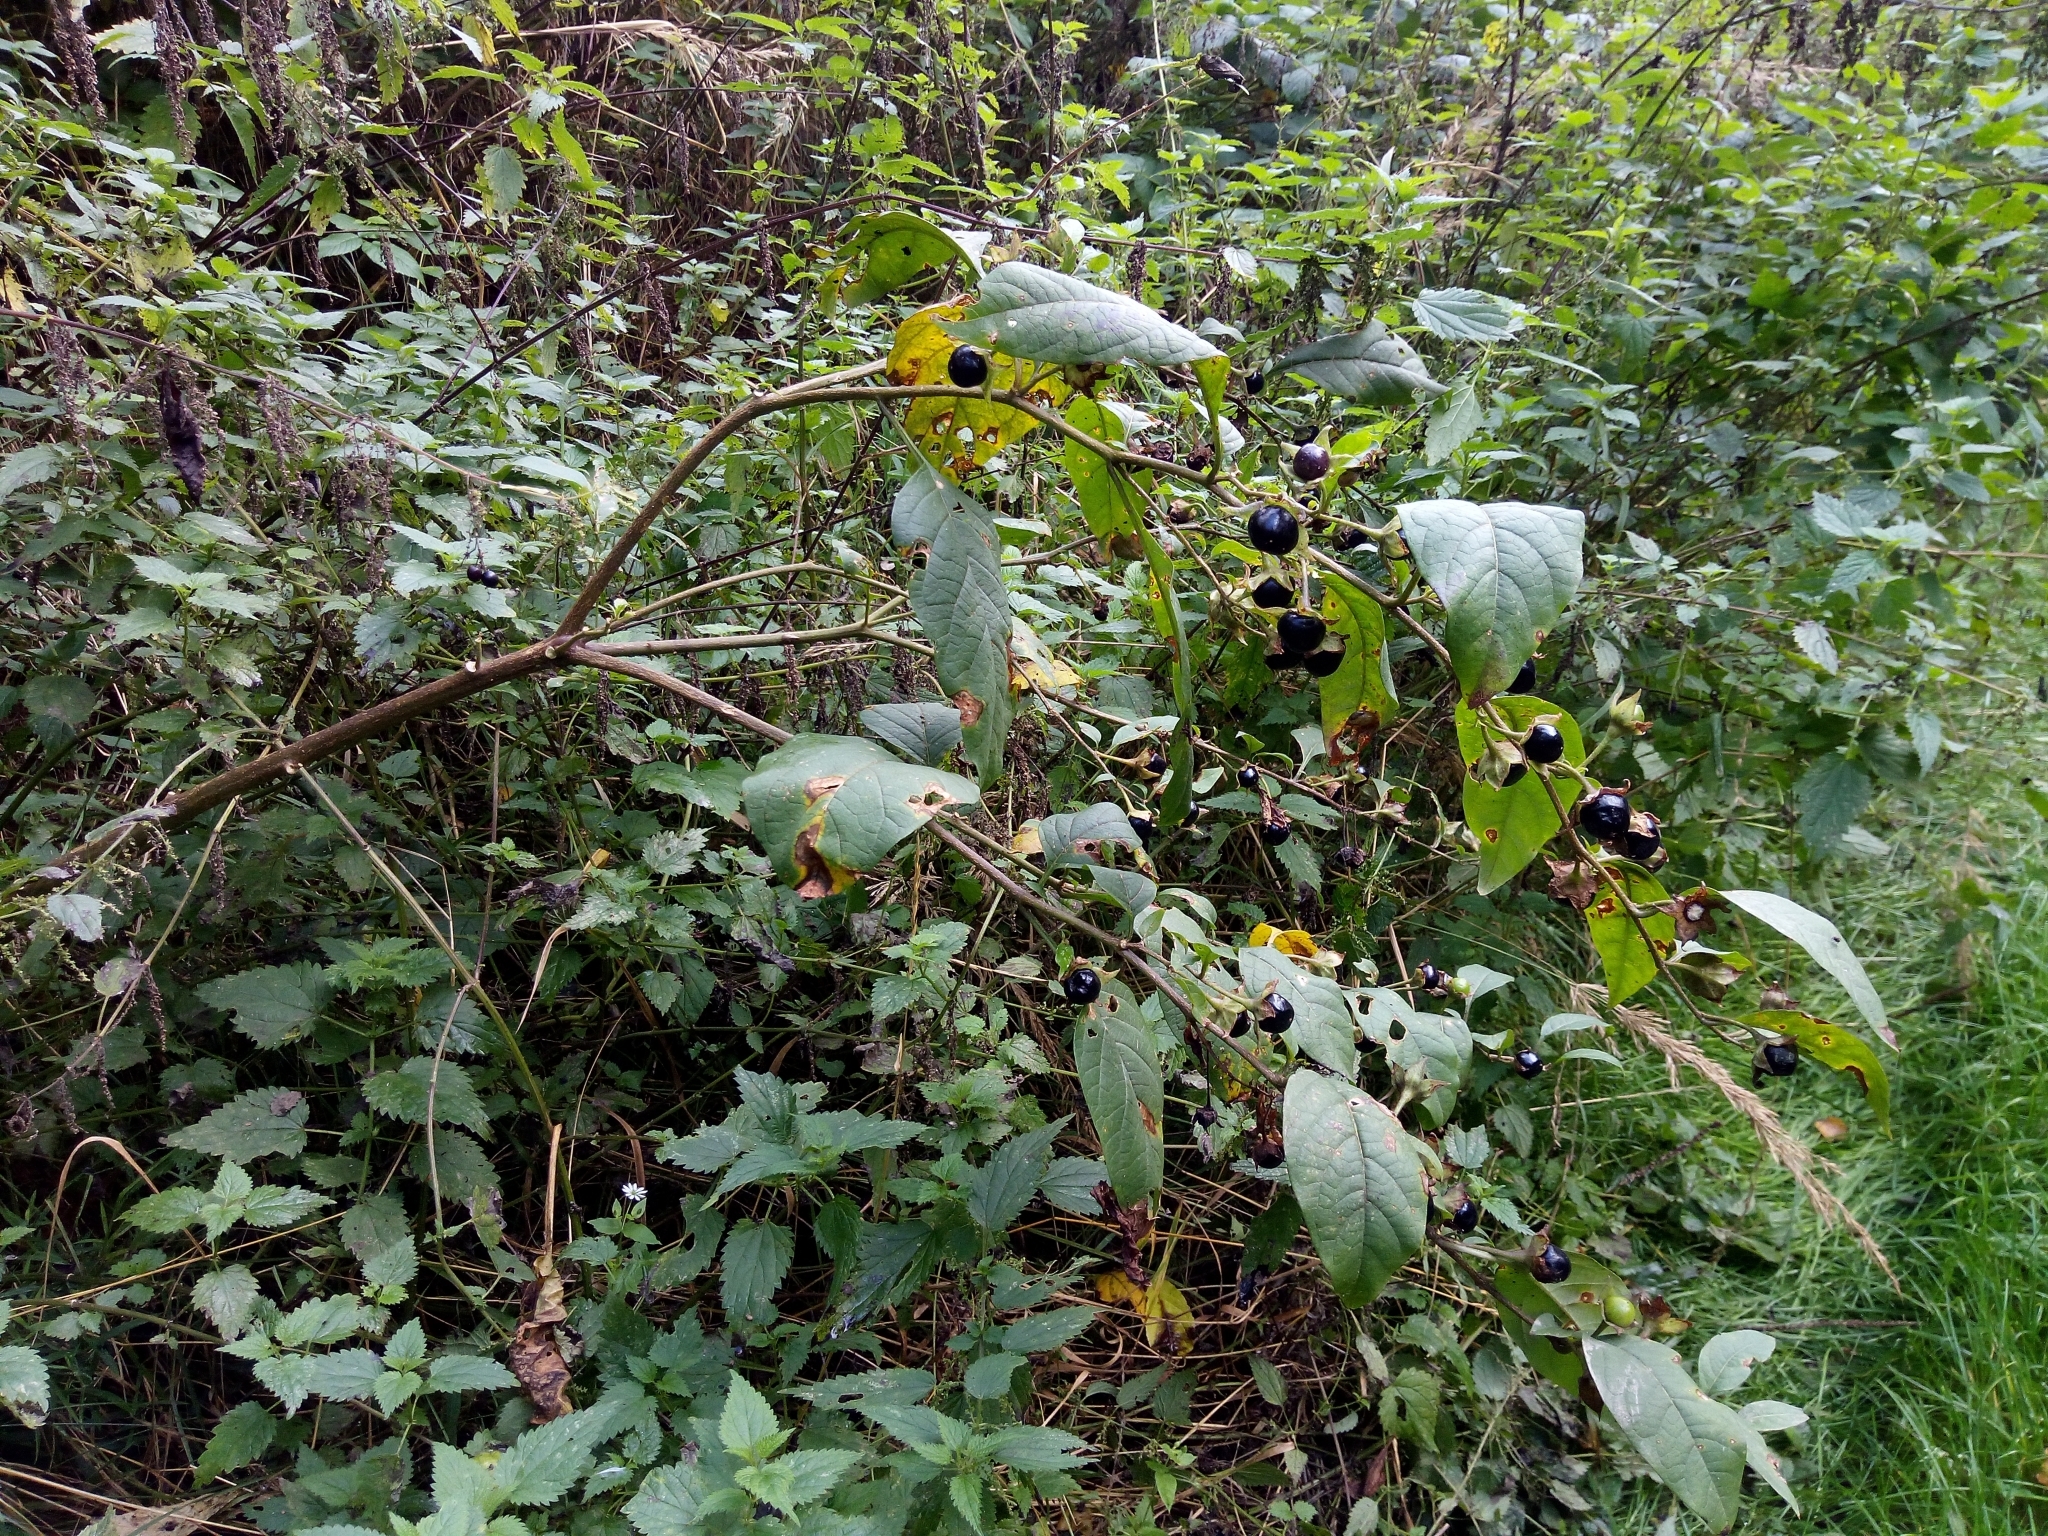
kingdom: Plantae
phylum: Tracheophyta
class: Magnoliopsida
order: Solanales
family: Solanaceae
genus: Atropa
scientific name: Atropa belladonna
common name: Deadly nightshade
